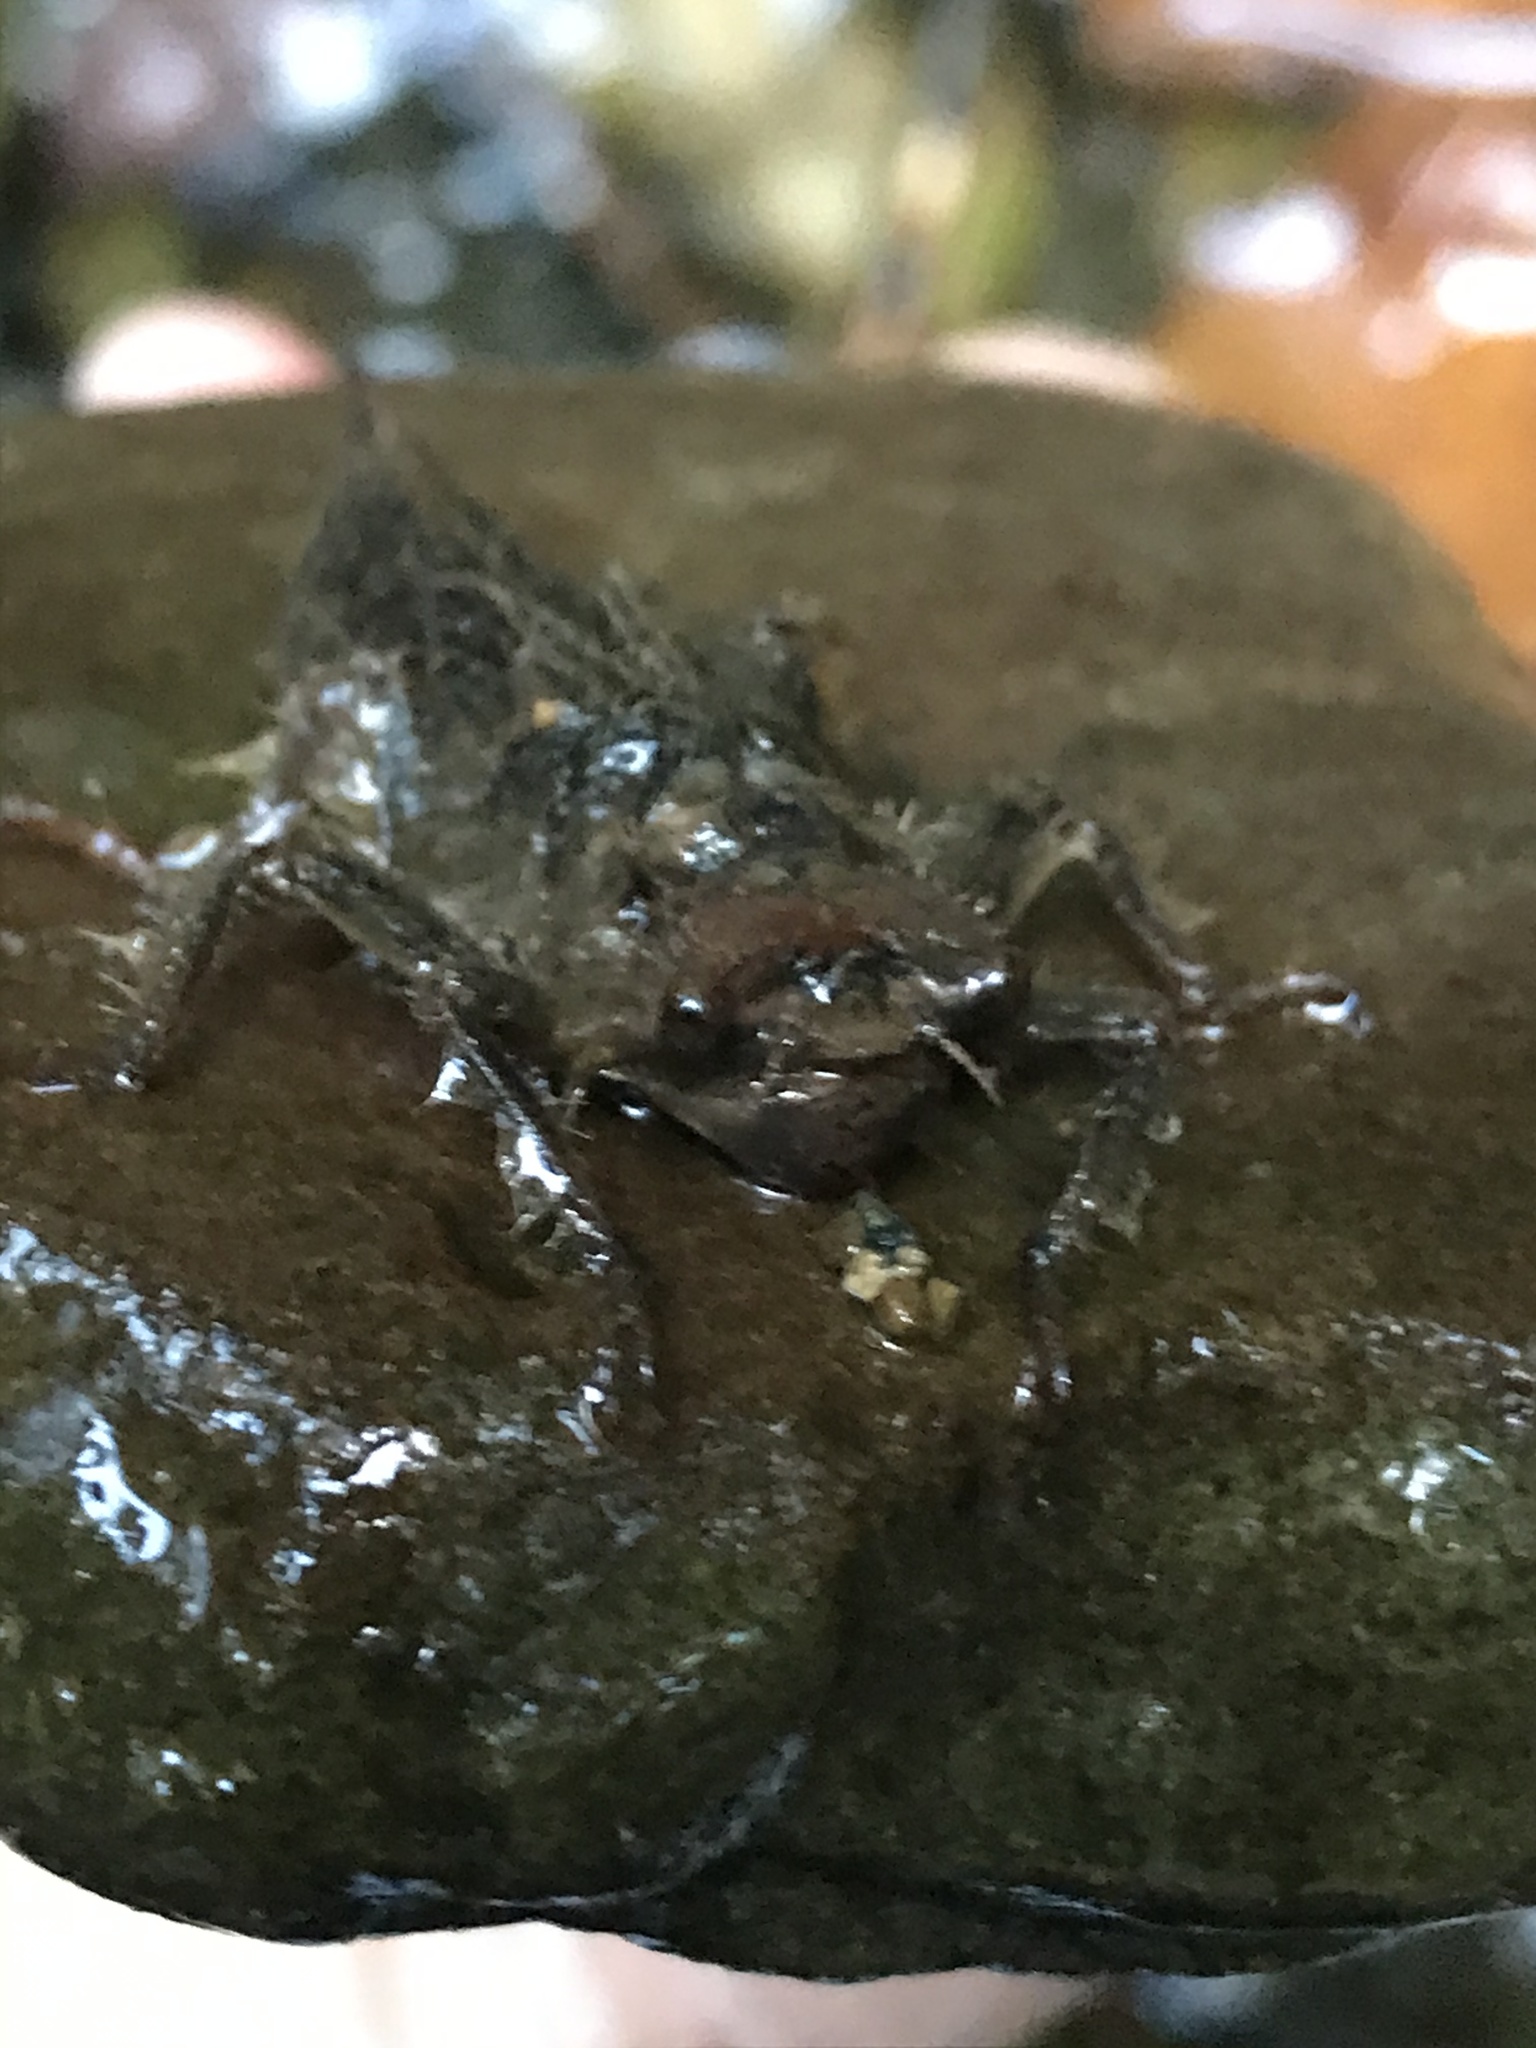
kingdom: Animalia
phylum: Arthropoda
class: Insecta
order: Odonata
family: Cordulegastridae
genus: Cordulegaster
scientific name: Cordulegaster dorsalis
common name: Pacific spiketail
